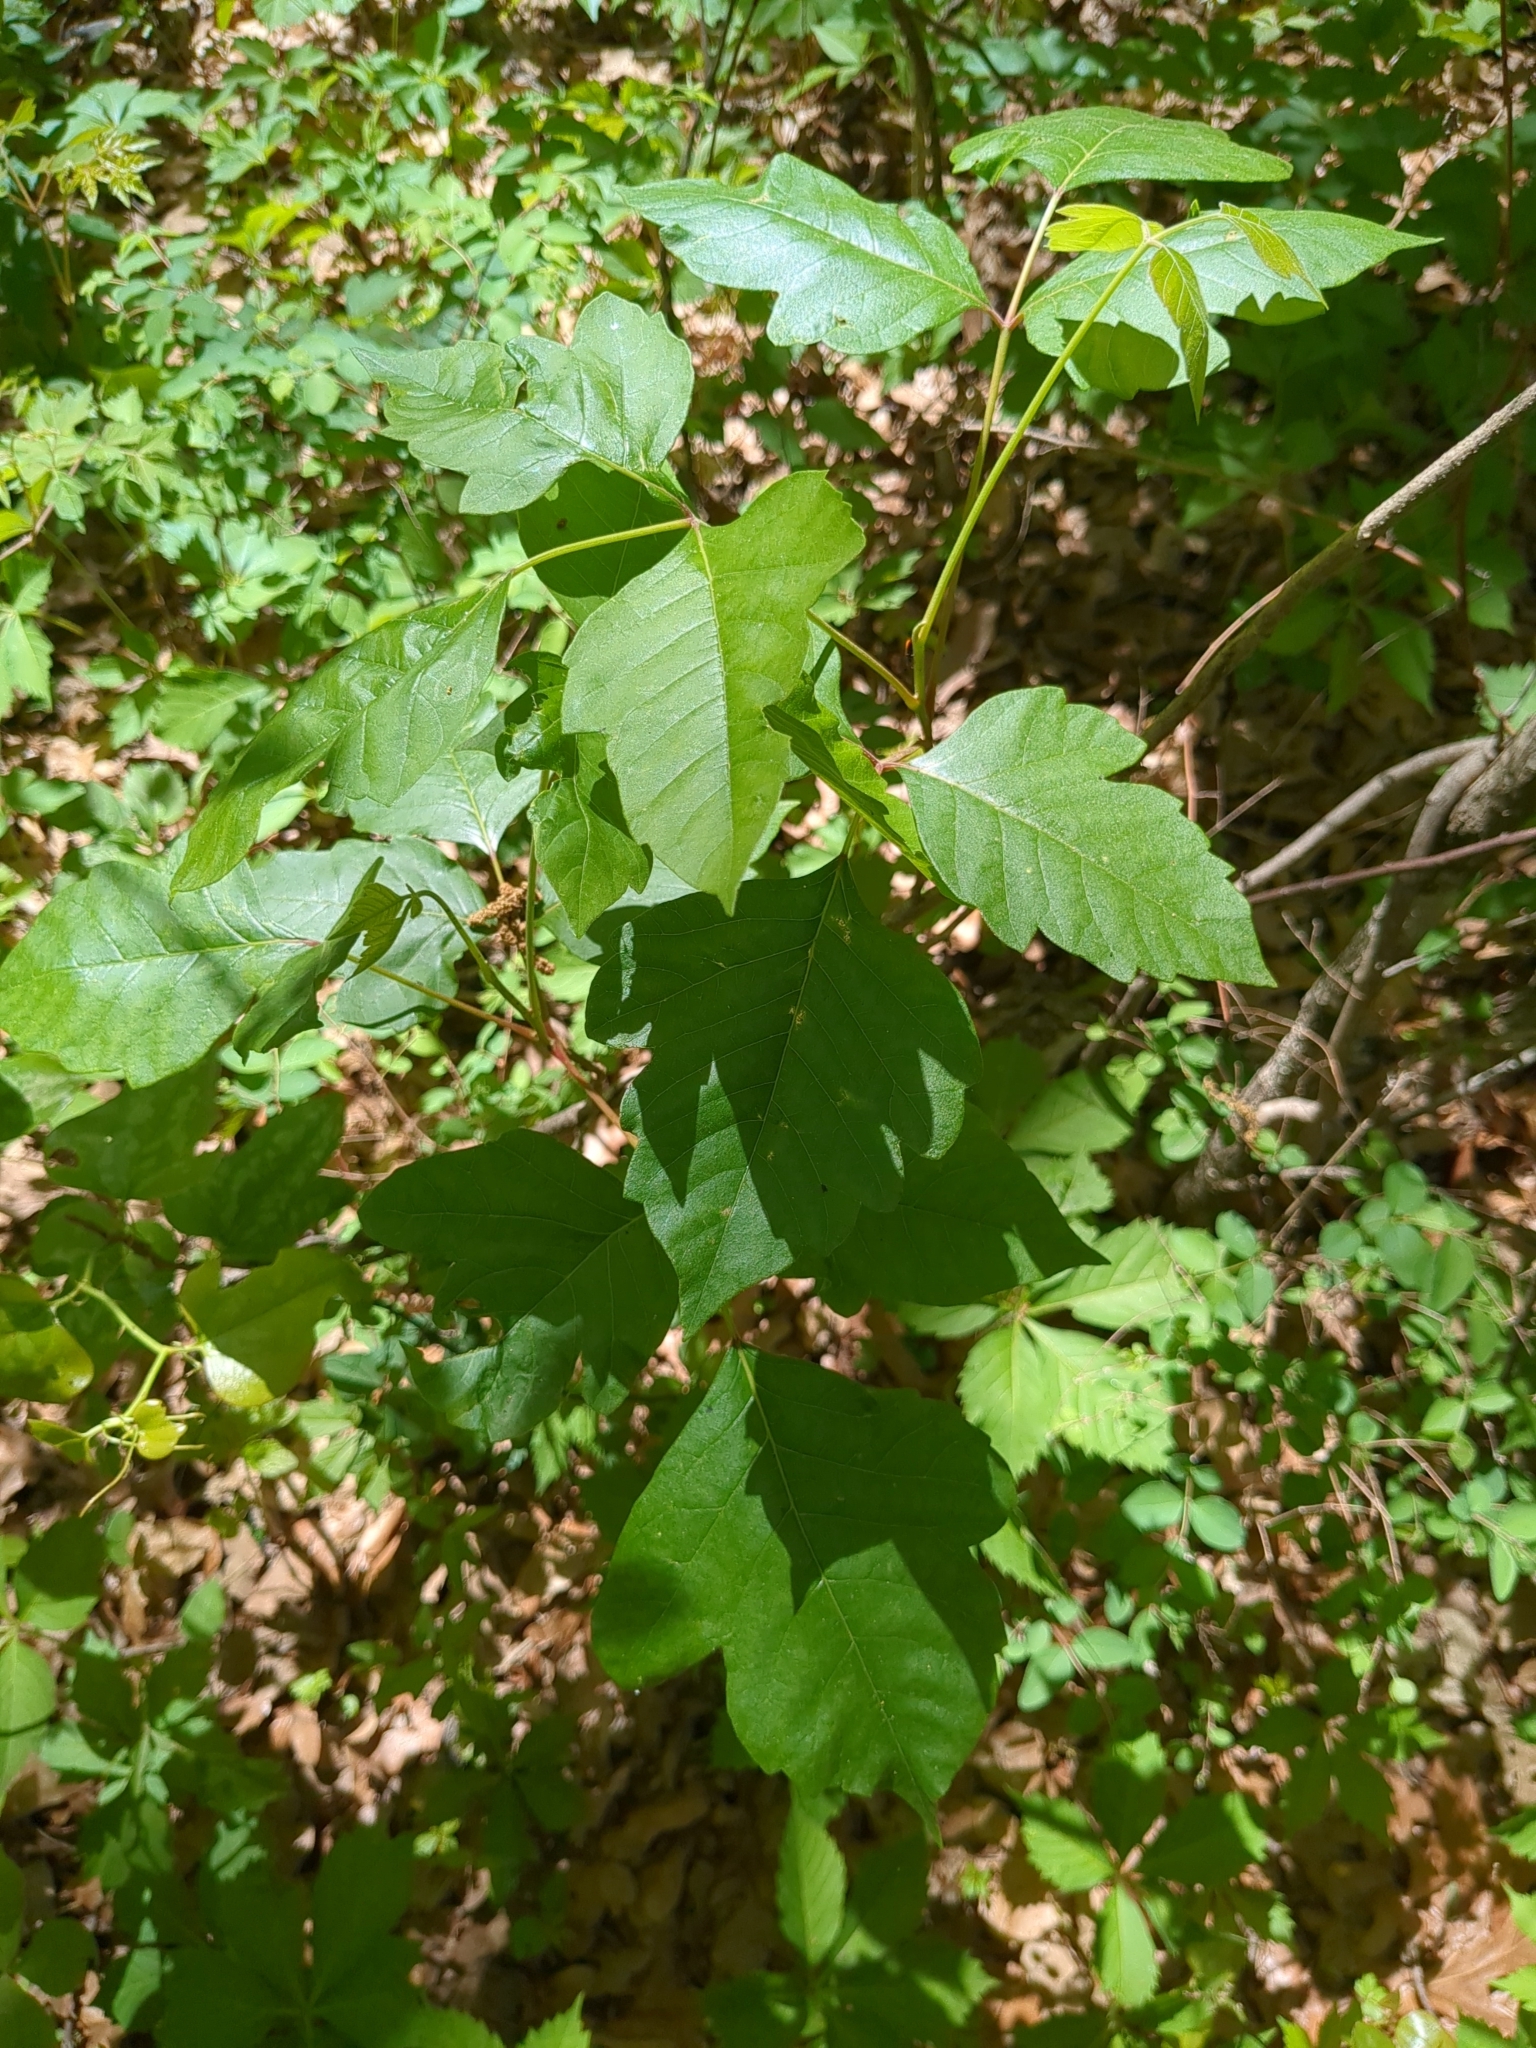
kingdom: Plantae
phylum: Tracheophyta
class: Magnoliopsida
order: Sapindales
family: Anacardiaceae
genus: Toxicodendron
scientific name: Toxicodendron radicans
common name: Poison ivy
